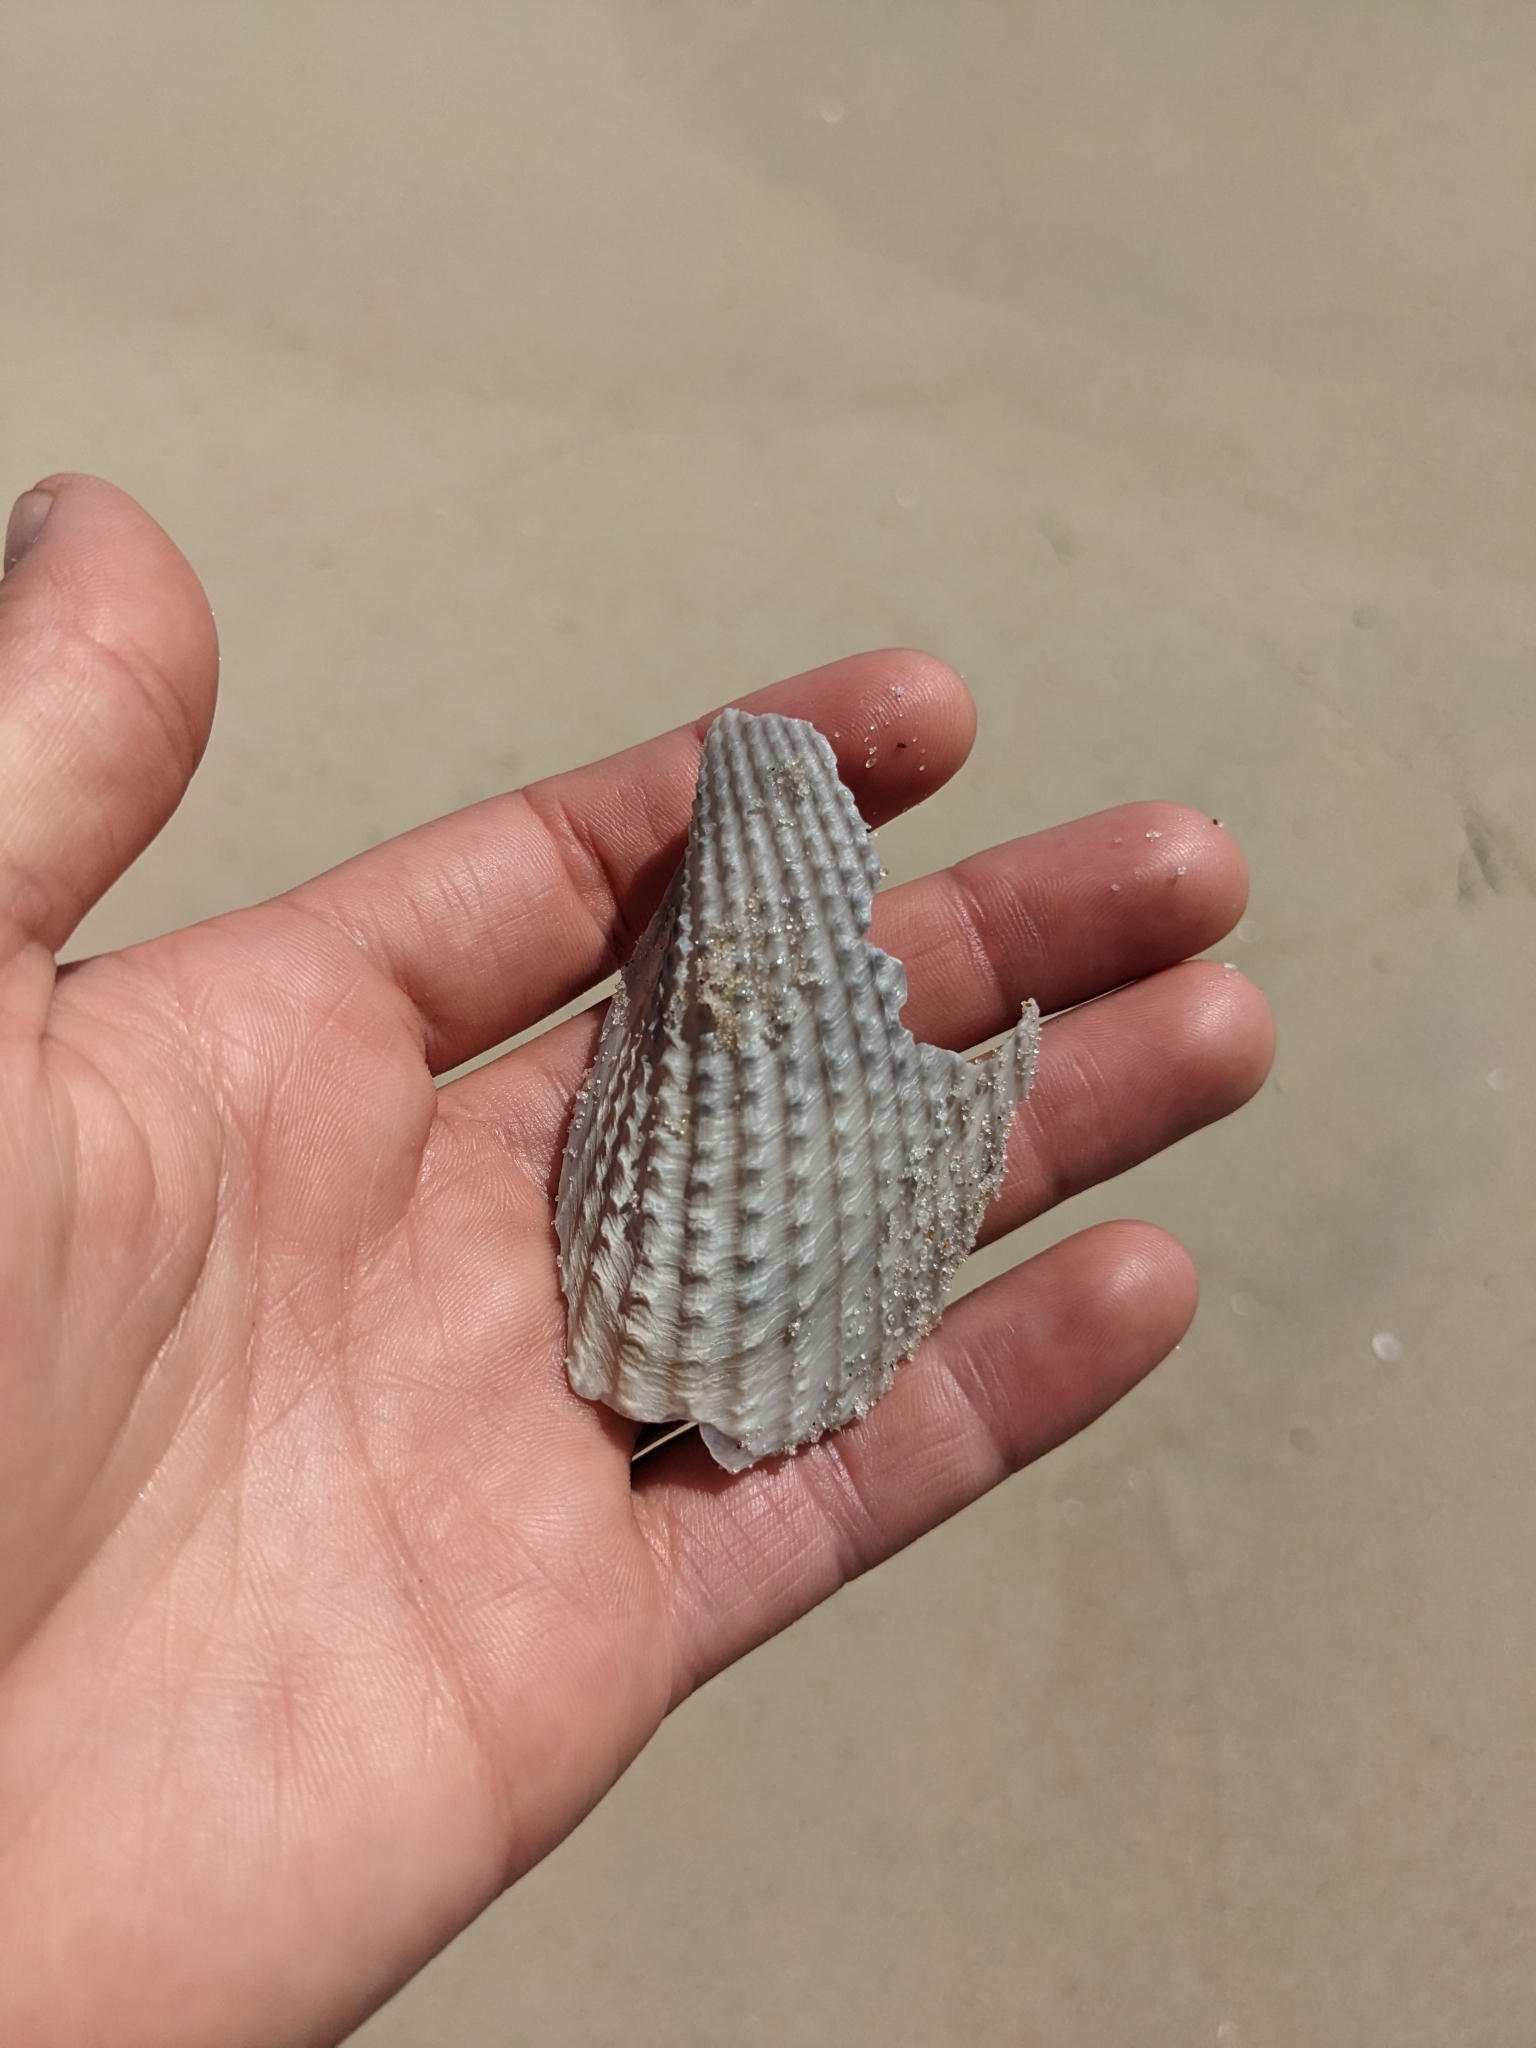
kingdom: Animalia
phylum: Mollusca
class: Bivalvia
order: Myida
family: Pholadidae
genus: Cyrtopleura
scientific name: Cyrtopleura costata
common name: Angel wing
